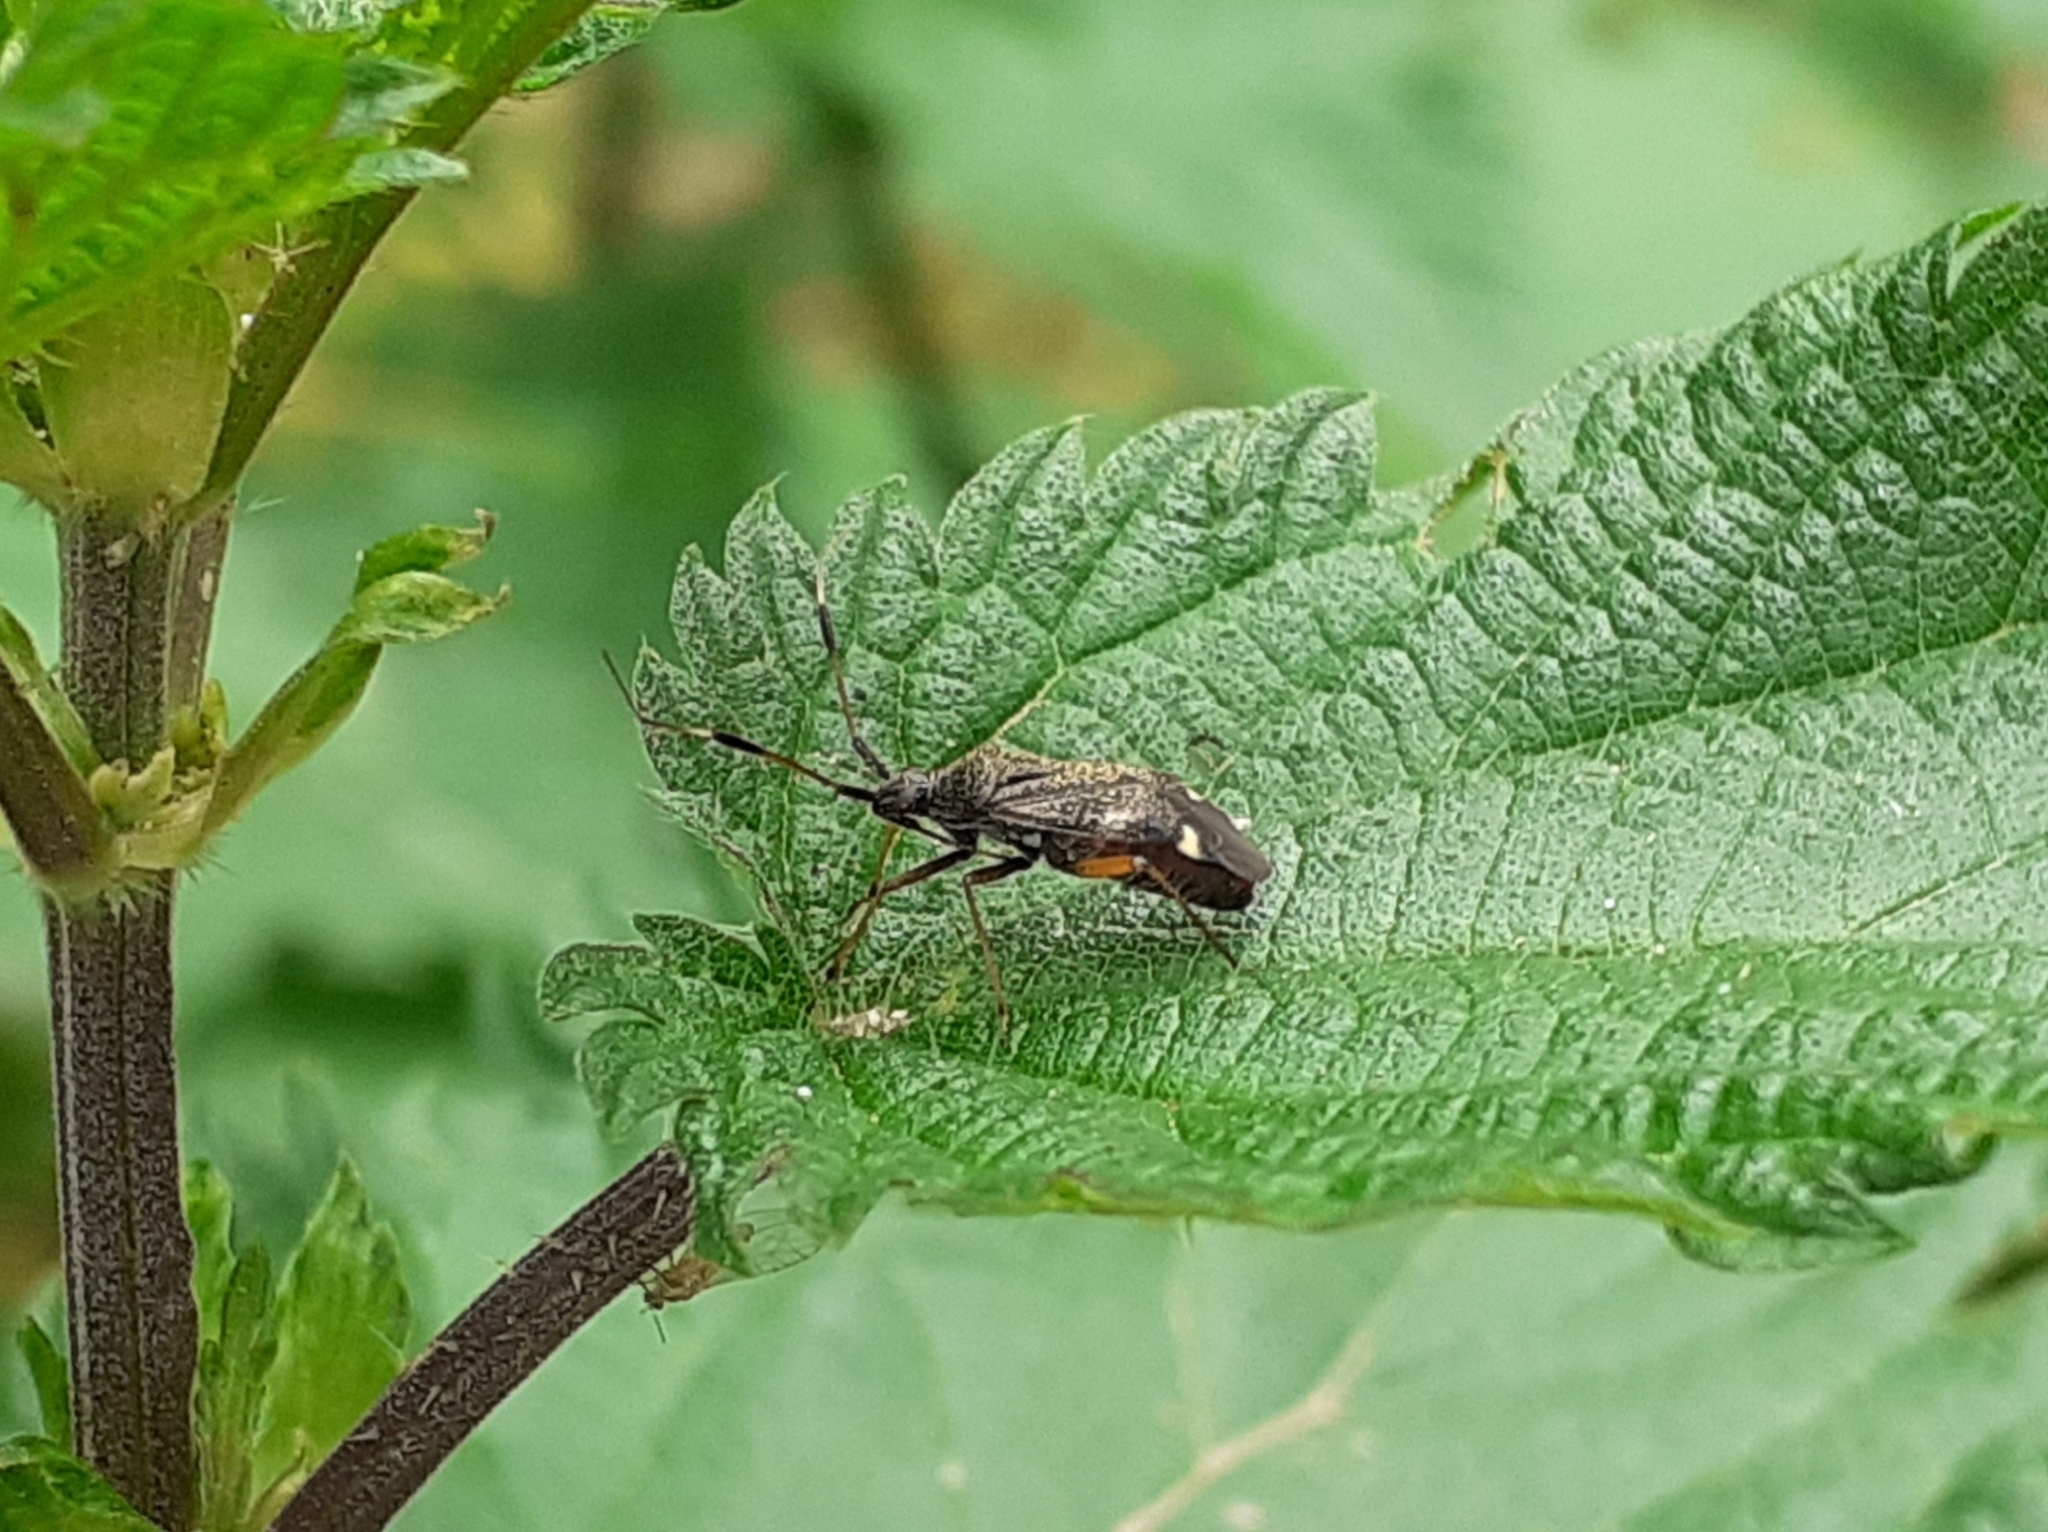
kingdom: Animalia
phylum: Arthropoda
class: Insecta
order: Hemiptera
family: Miridae
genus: Closterotomus
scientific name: Closterotomus biclavatus
